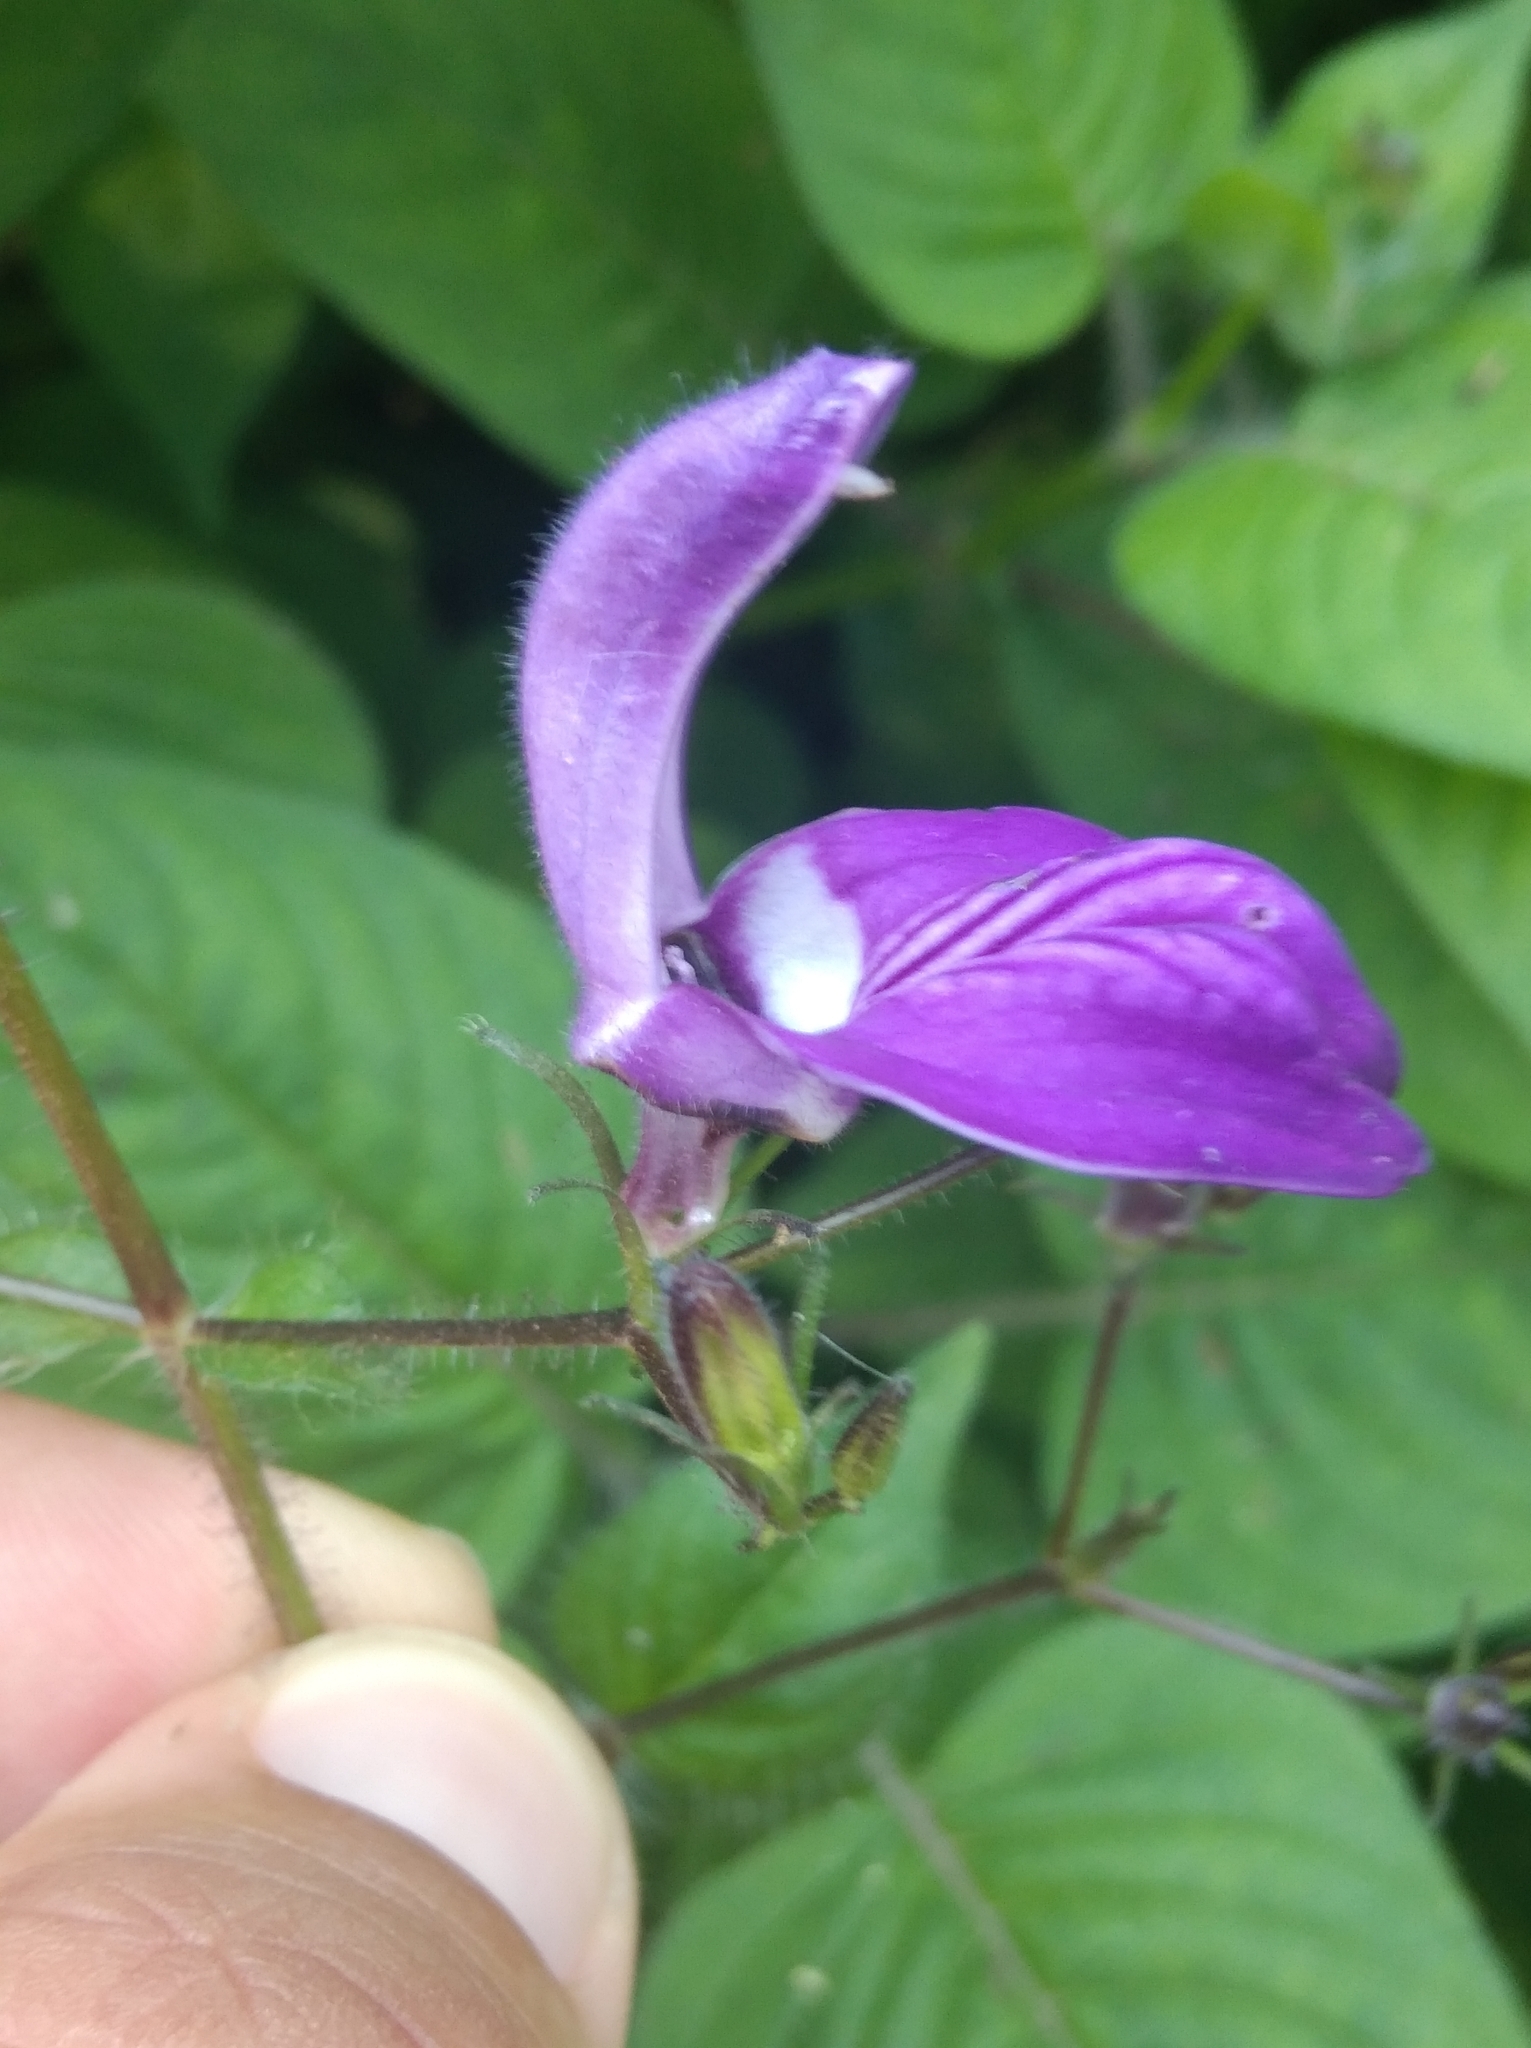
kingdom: Plantae
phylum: Tracheophyta
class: Magnoliopsida
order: Lamiales
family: Acanthaceae
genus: Brillantaisia
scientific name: Brillantaisia lamium
